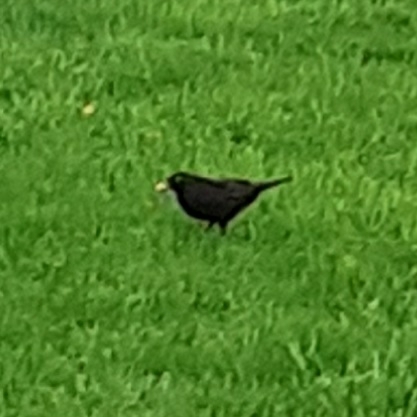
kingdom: Animalia
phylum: Chordata
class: Aves
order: Passeriformes
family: Turdidae
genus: Turdus
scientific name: Turdus merula
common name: Common blackbird
